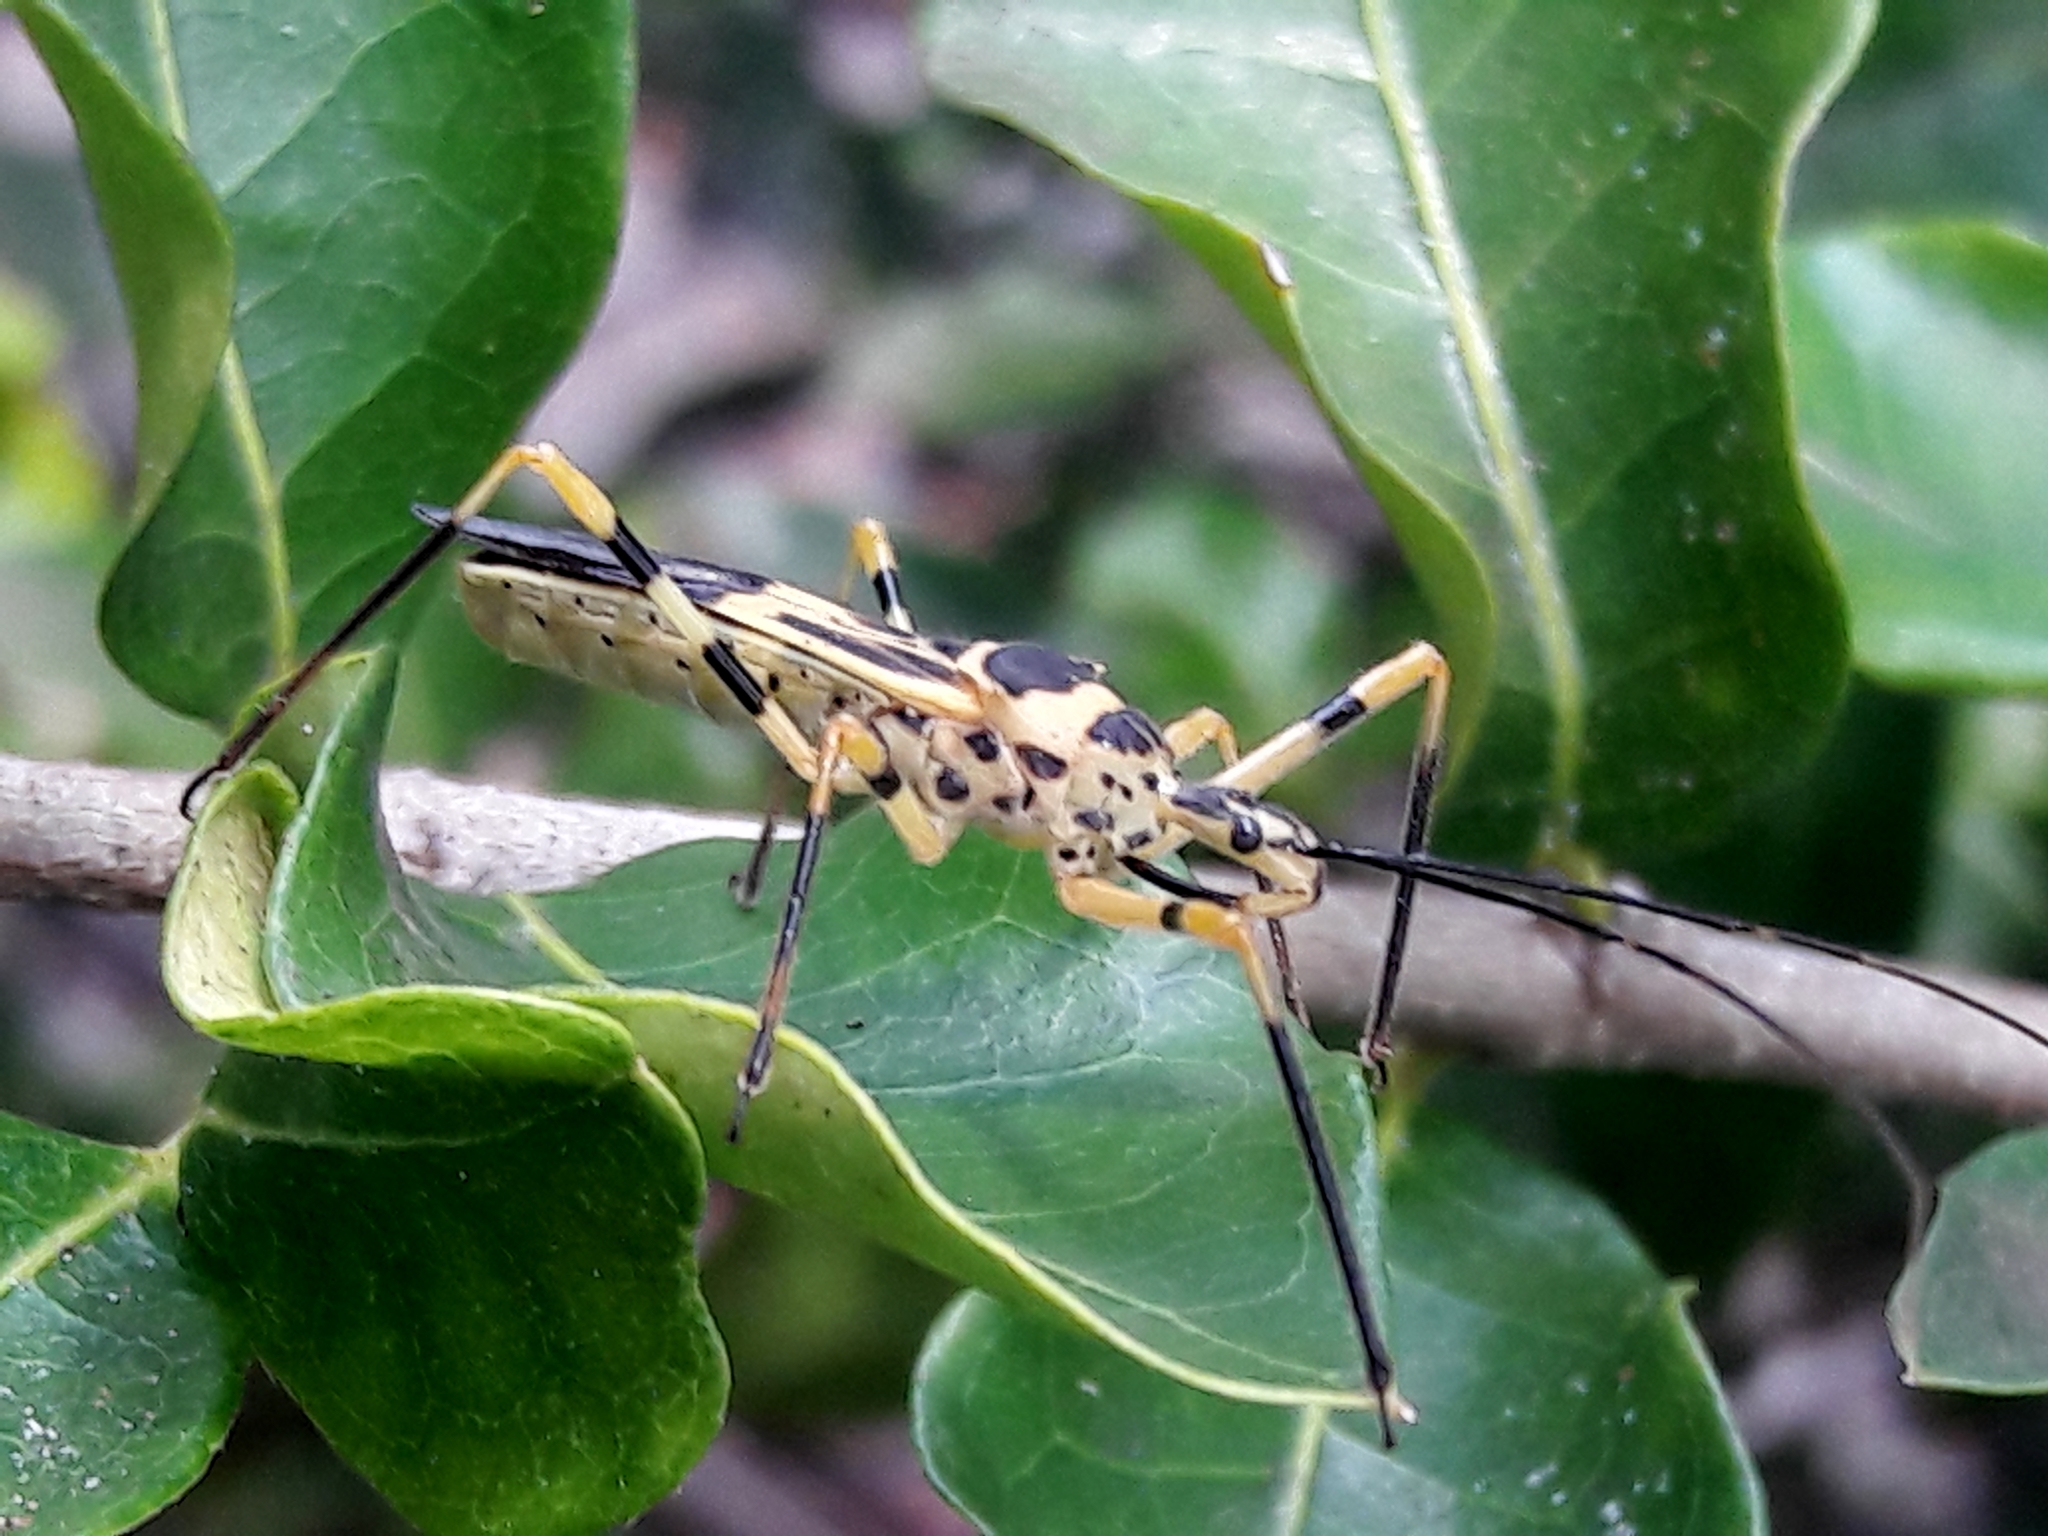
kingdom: Animalia
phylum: Arthropoda
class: Insecta
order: Hemiptera
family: Reduviidae
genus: Zelus
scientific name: Zelus armillatus
